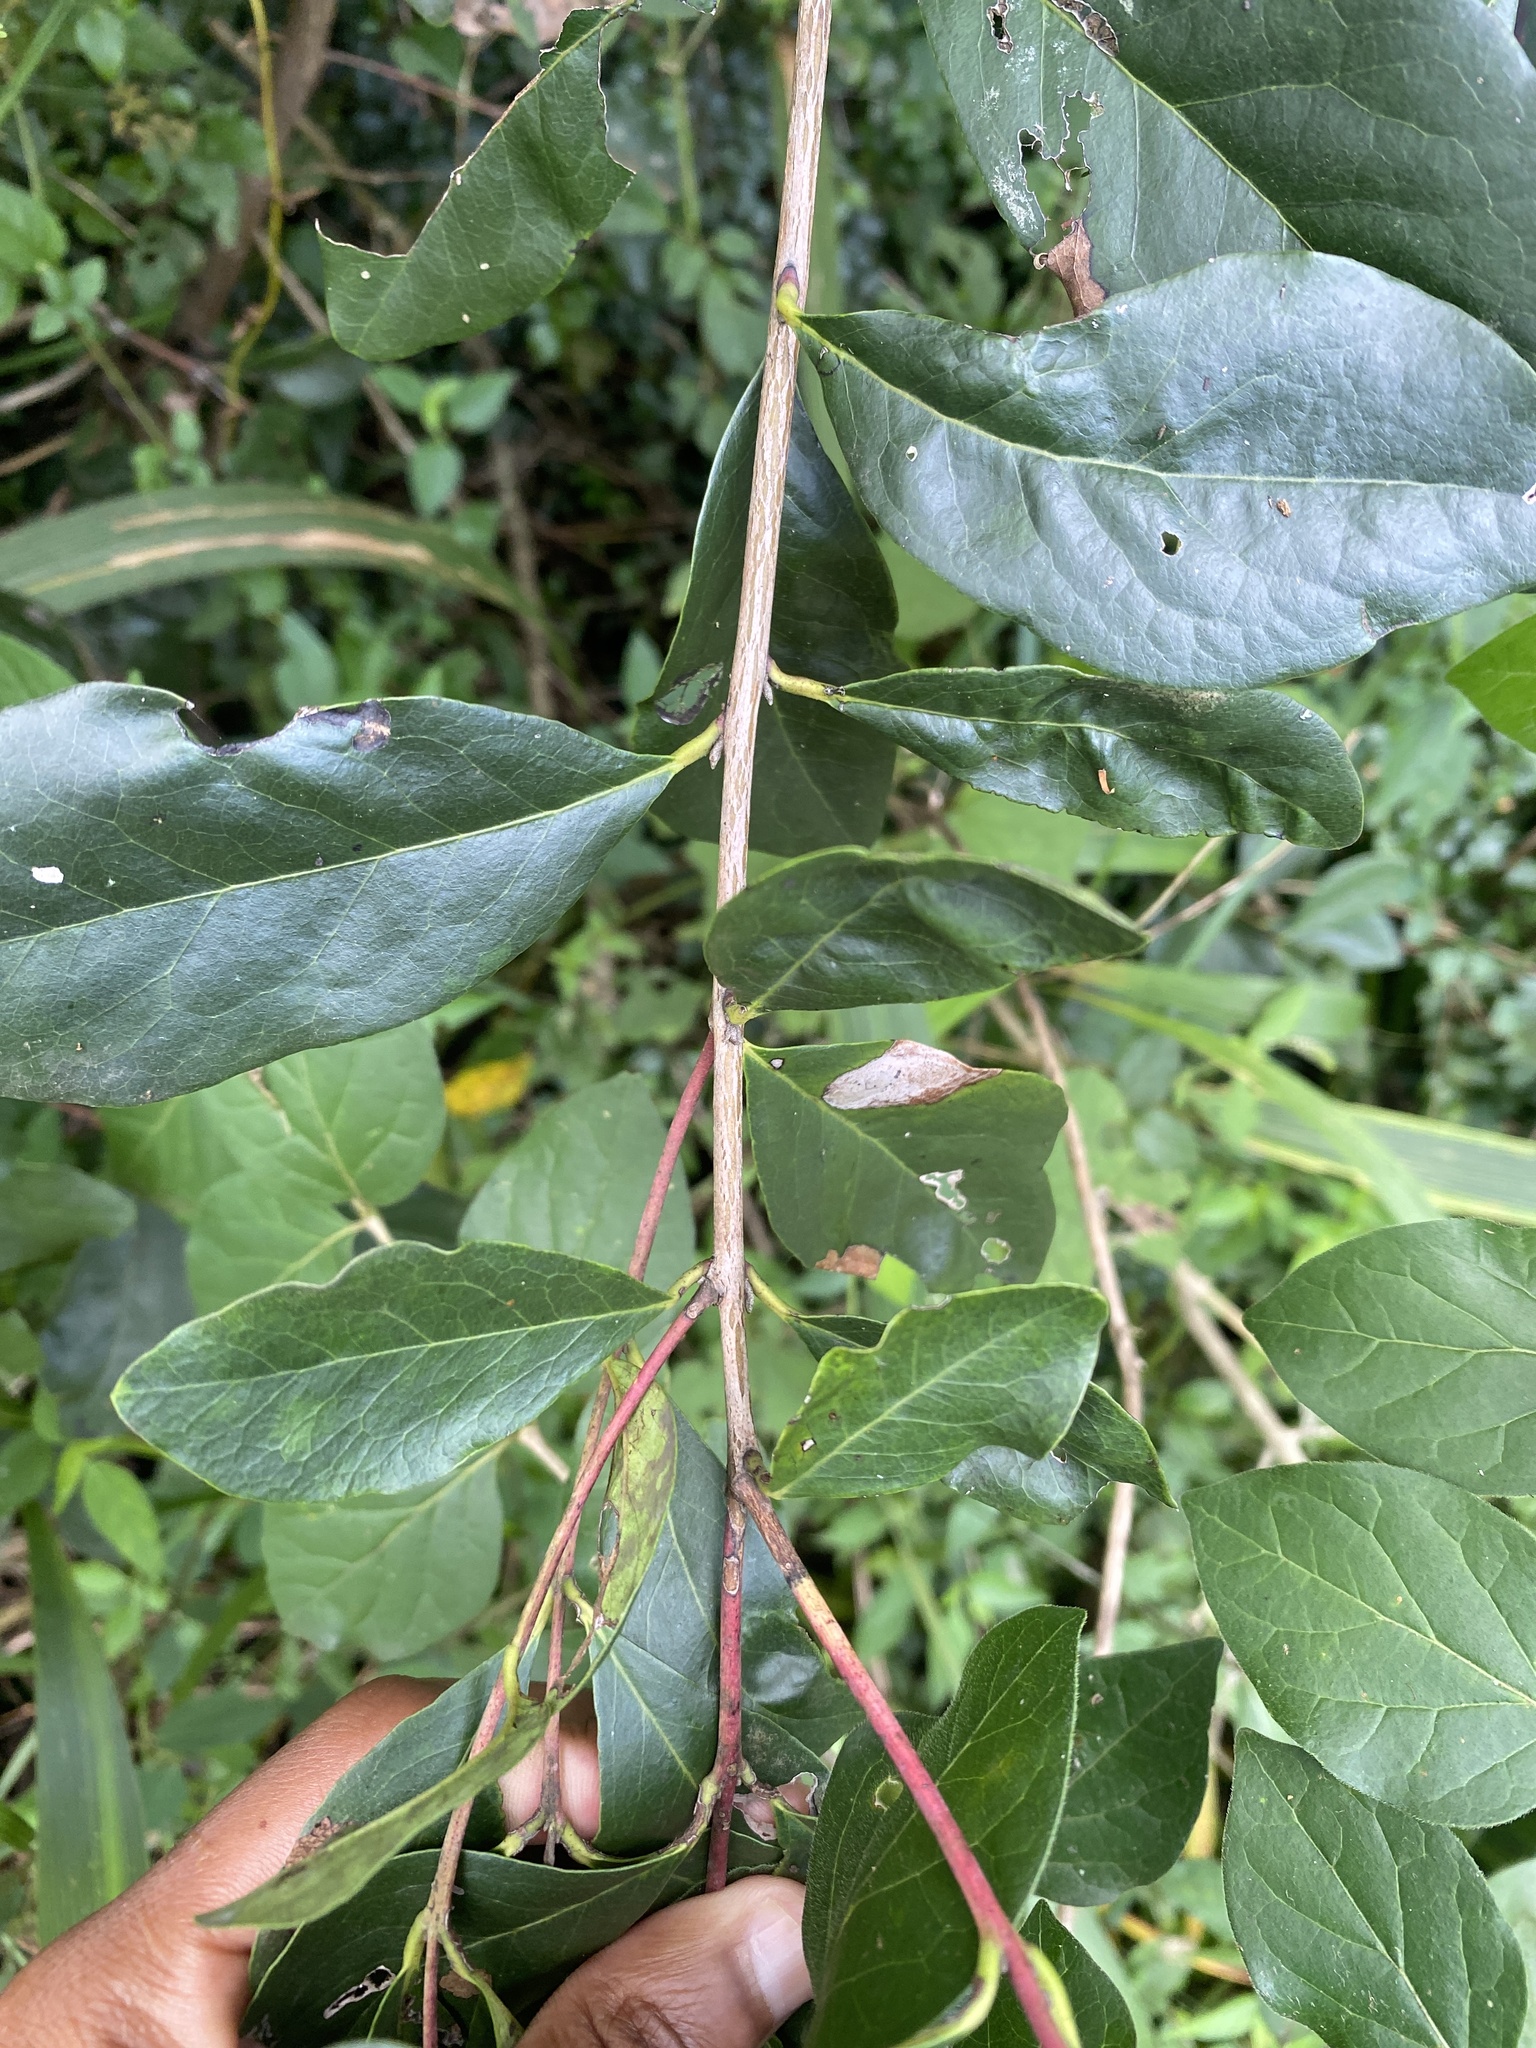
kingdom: Plantae
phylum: Tracheophyta
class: Magnoliopsida
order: Ericales
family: Ebenaceae
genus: Euclea
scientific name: Euclea crispa
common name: Blue guarri
